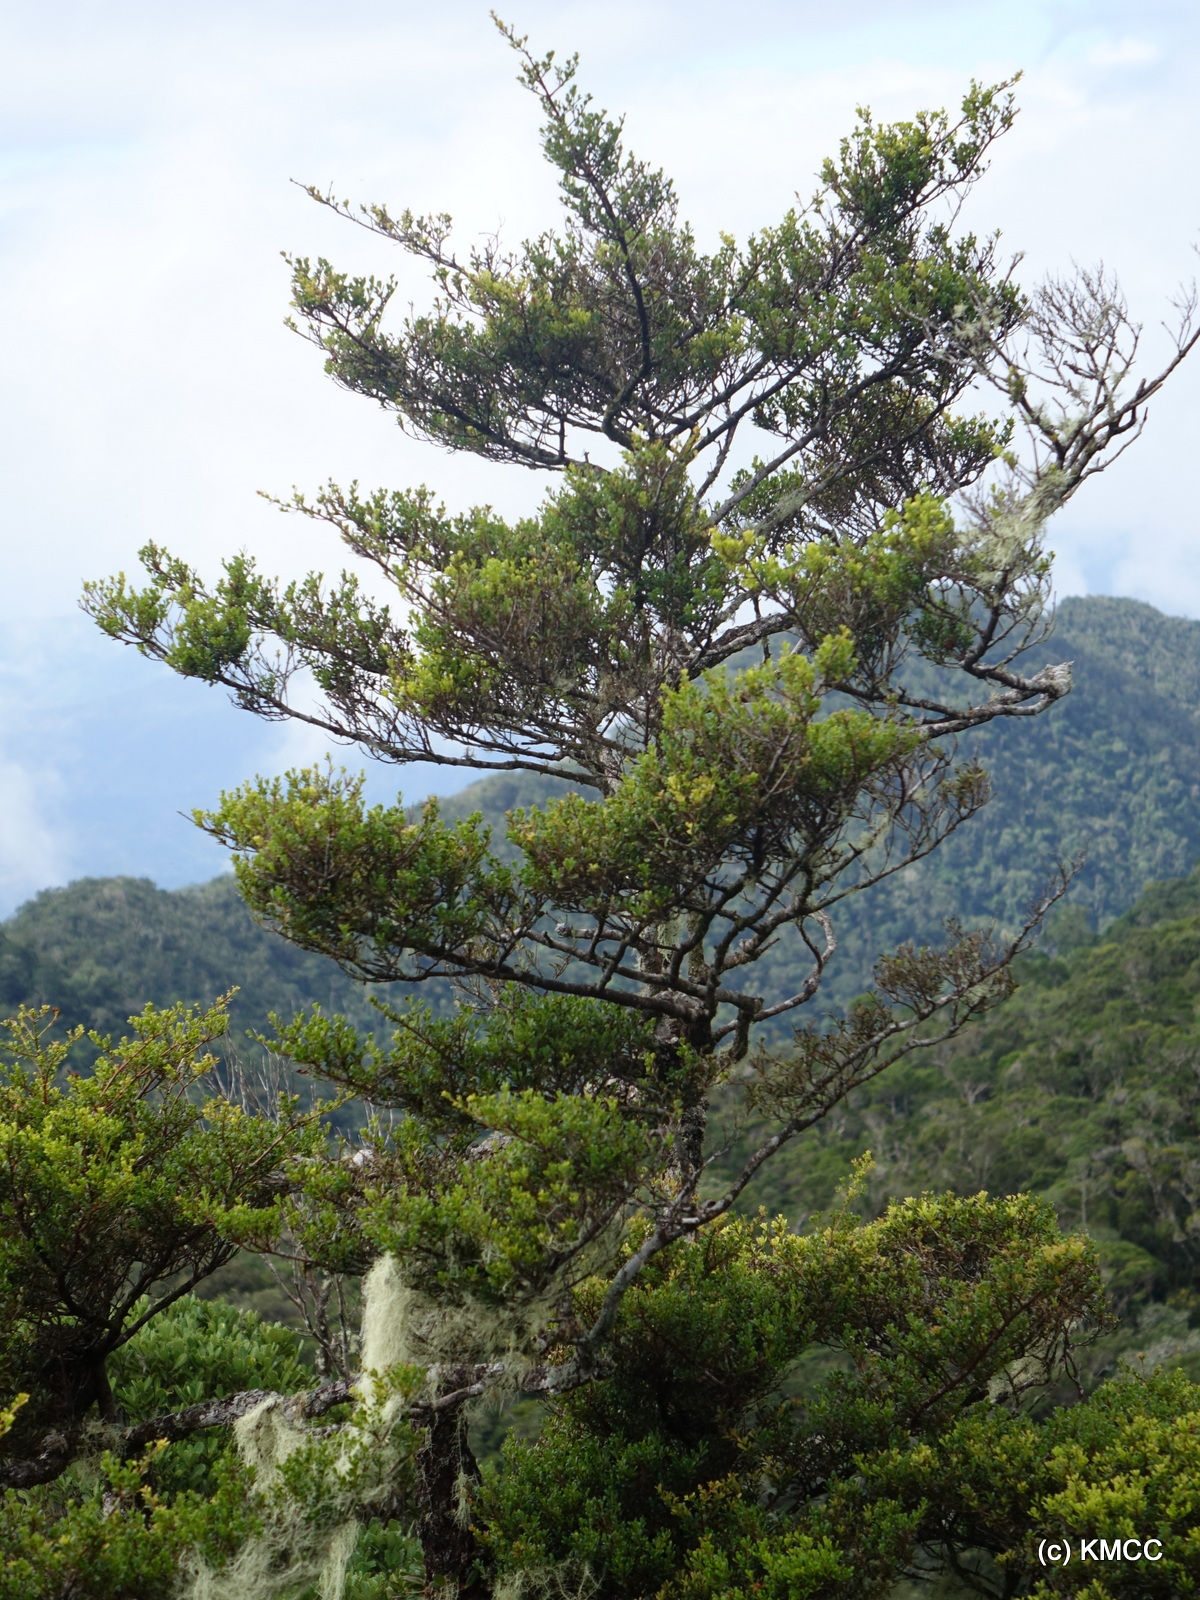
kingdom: Plantae
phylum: Tracheophyta
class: Magnoliopsida
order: Malpighiales
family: Clusiaceae
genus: Symphonia
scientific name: Symphonia clusioides
